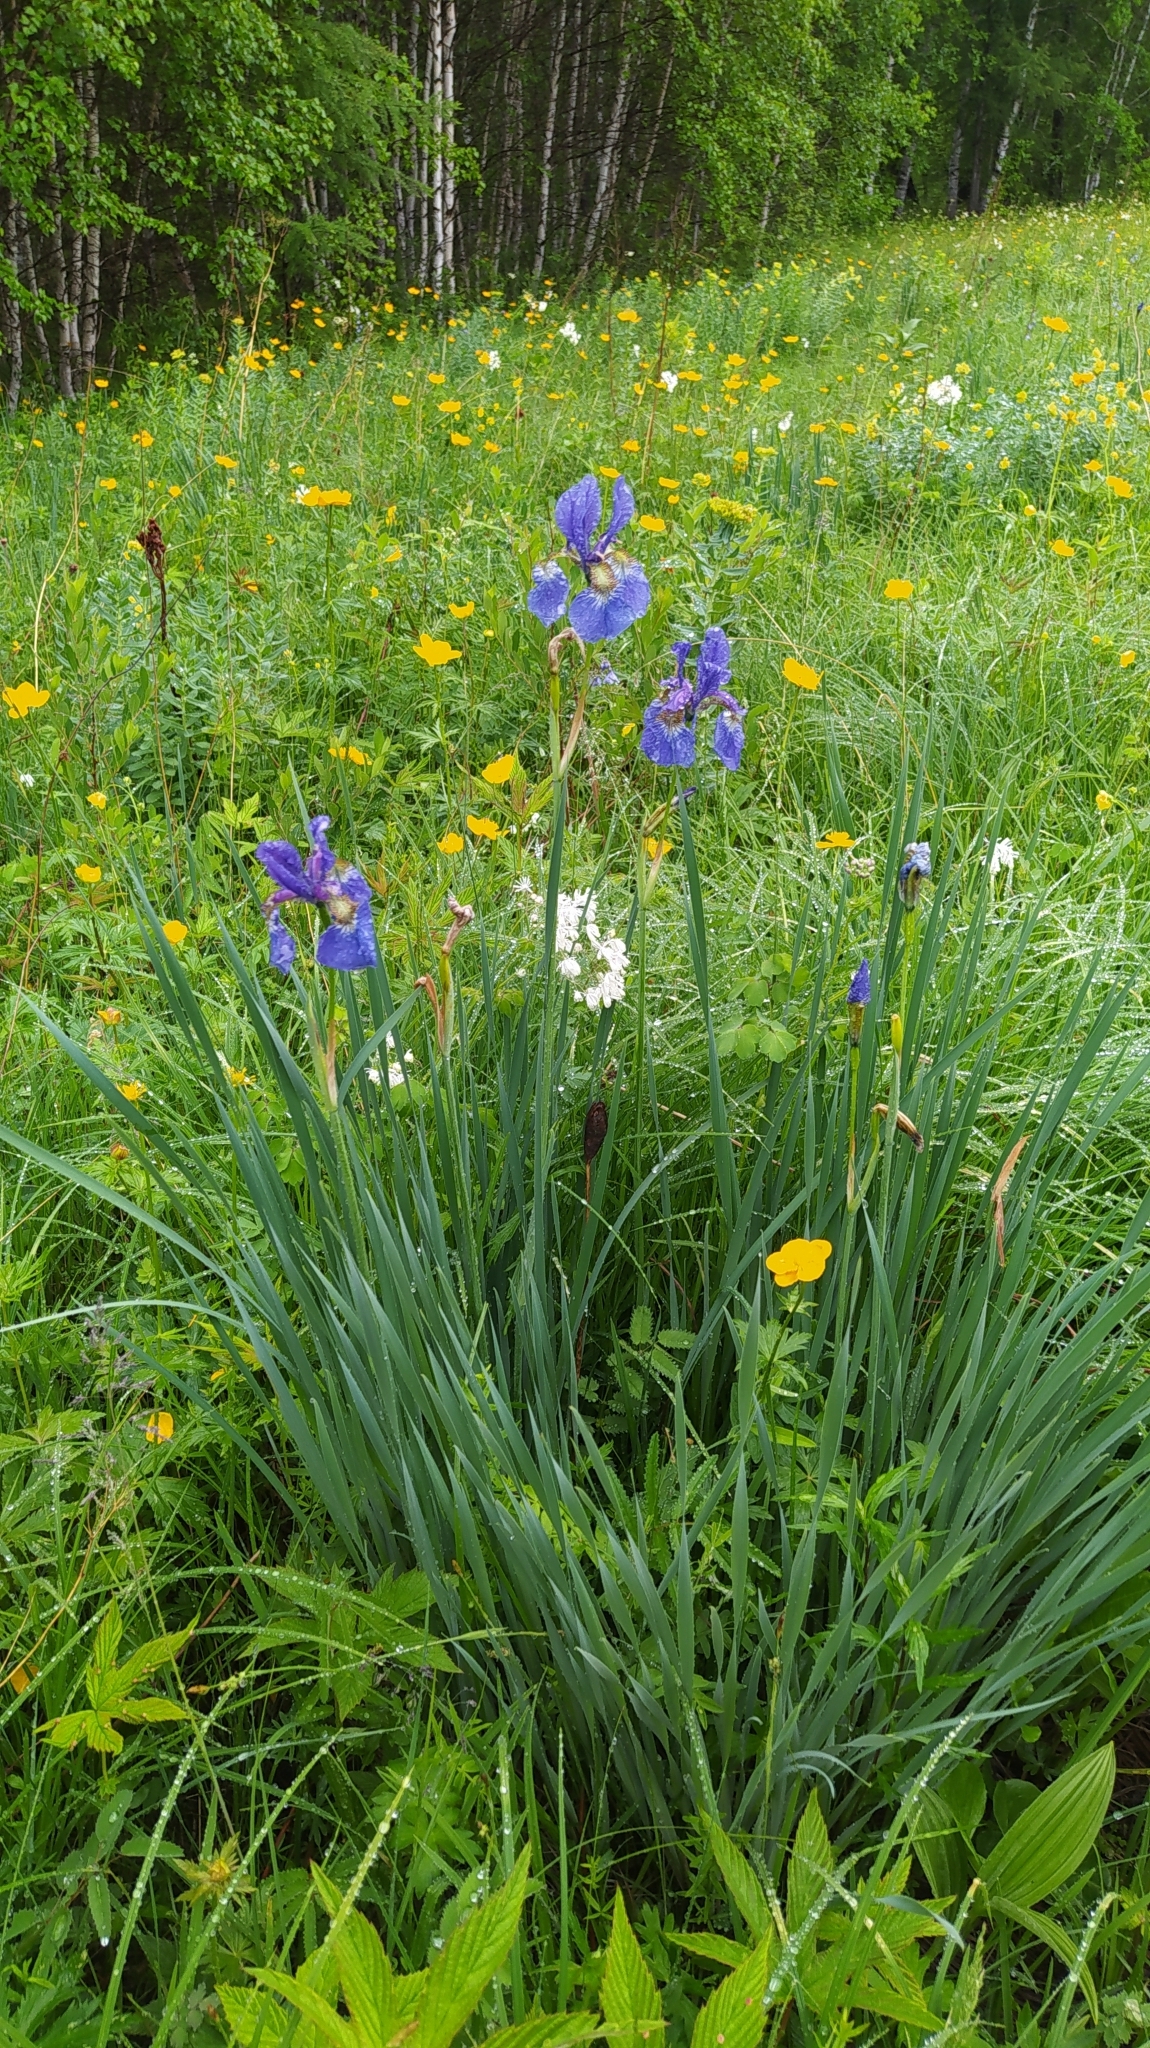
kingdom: Plantae
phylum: Tracheophyta
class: Liliopsida
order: Asparagales
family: Iridaceae
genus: Iris
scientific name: Iris sanguinea
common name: Blood iris
